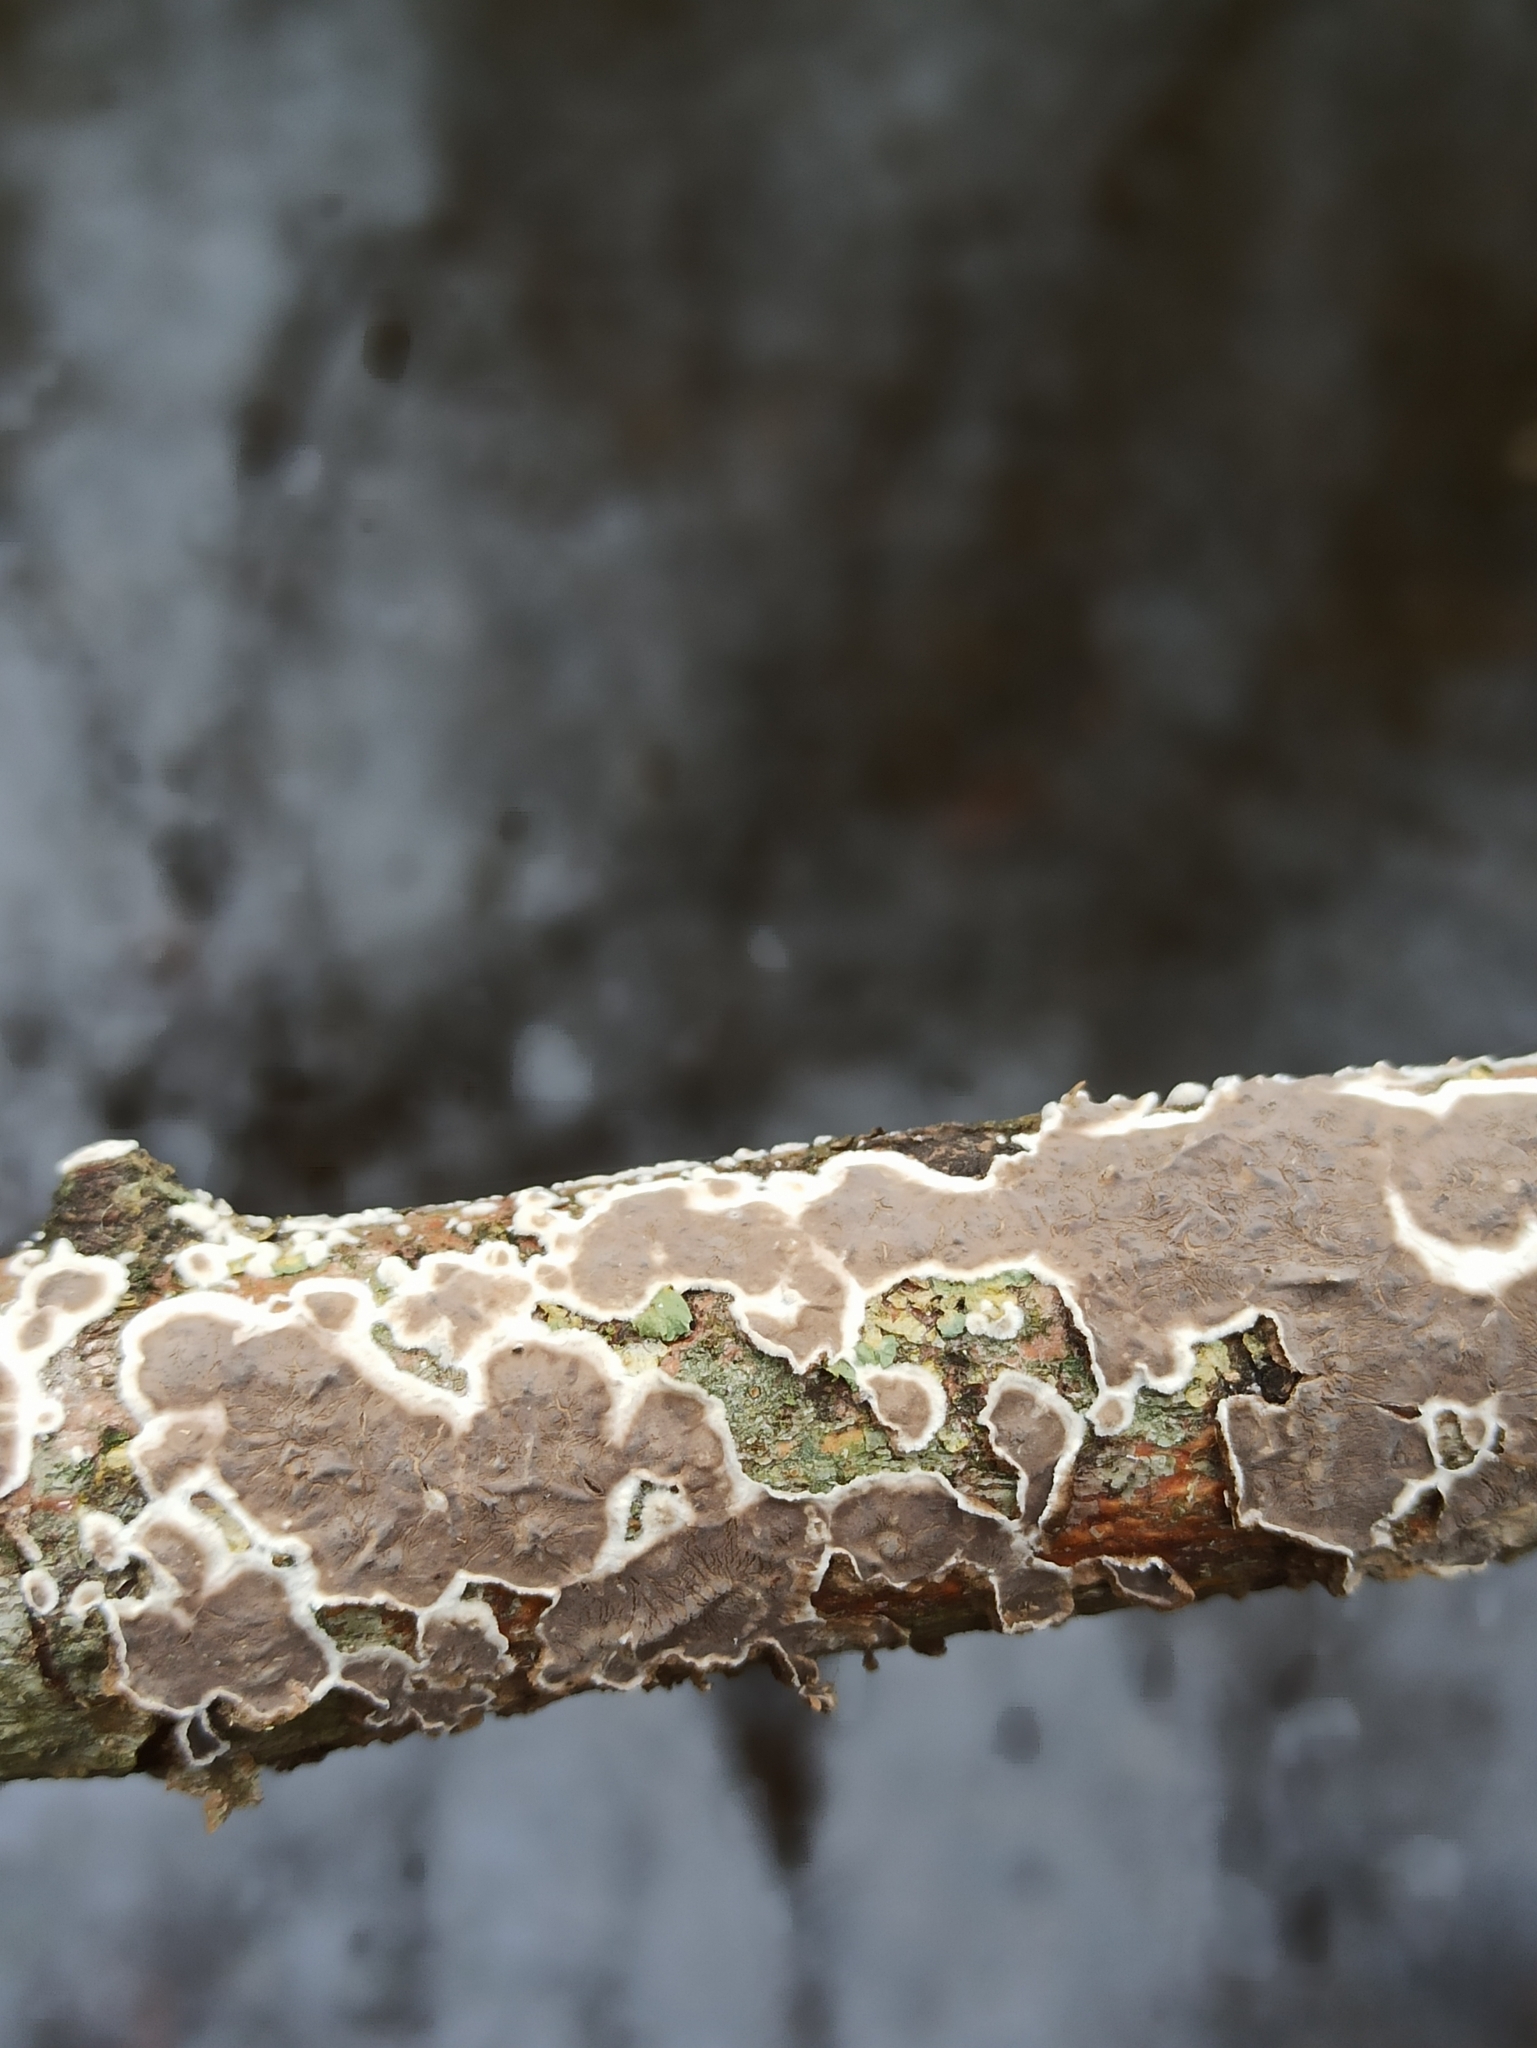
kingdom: Fungi
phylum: Basidiomycota
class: Agaricomycetes
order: Russulales
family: Peniophoraceae
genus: Peniophora
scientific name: Peniophora albobadia
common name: Giraffe spots
